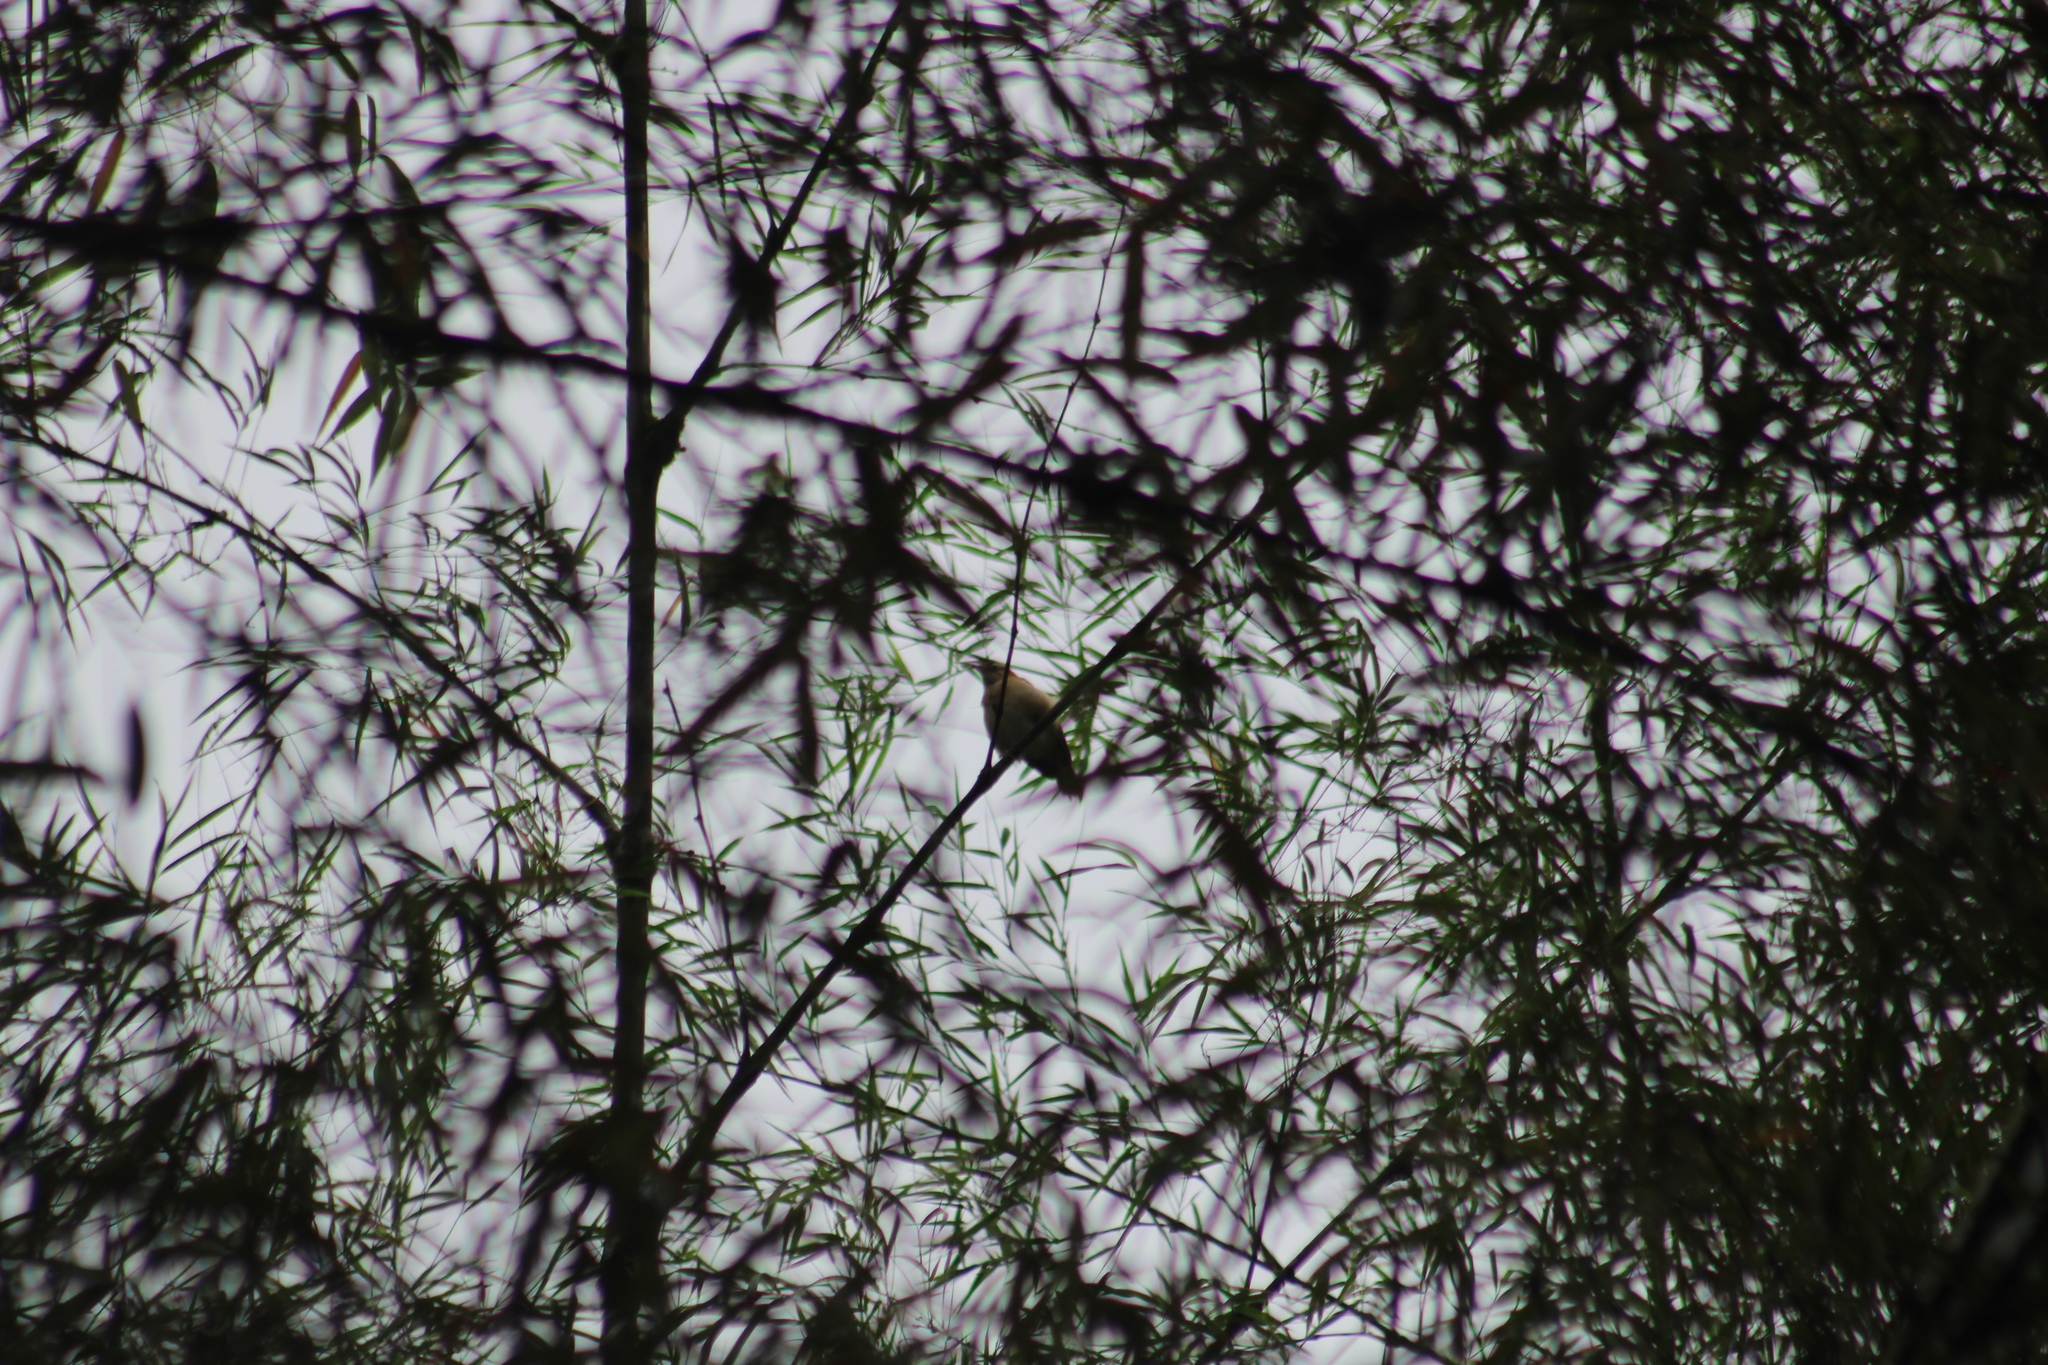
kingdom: Animalia
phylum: Chordata
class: Aves
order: Passeriformes
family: Furnariidae
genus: Furnarius
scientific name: Furnarius leucopus
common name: Pale-legged hornero
